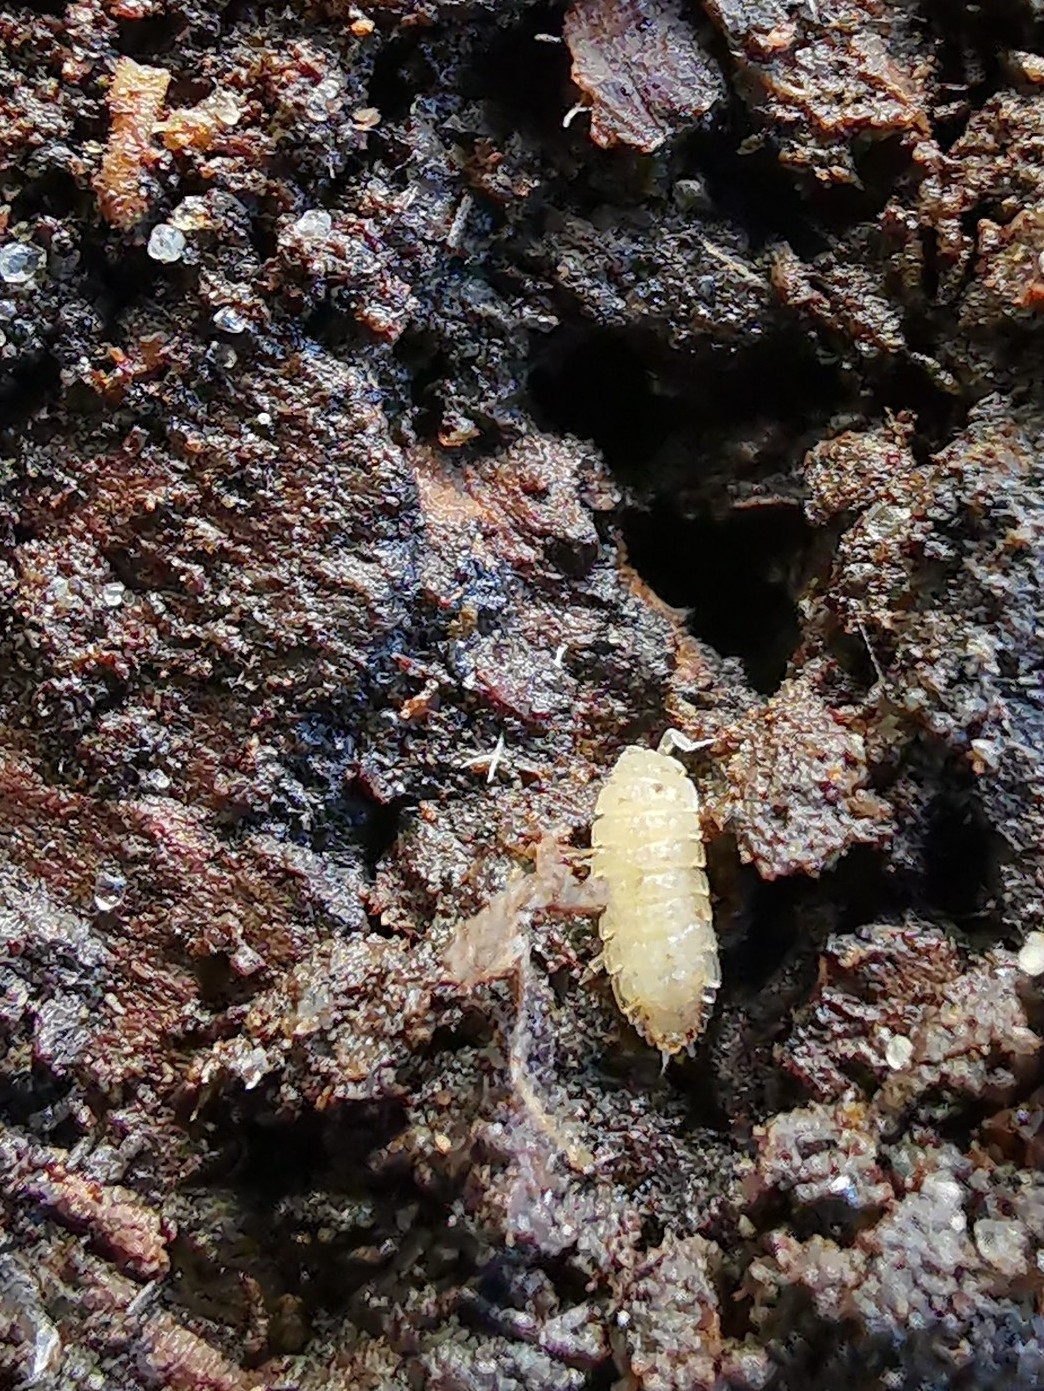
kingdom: Animalia
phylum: Arthropoda
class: Malacostraca
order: Isopoda
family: Trichoniscidae
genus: Haplophthalmus
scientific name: Haplophthalmus danicus
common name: Pillbug
